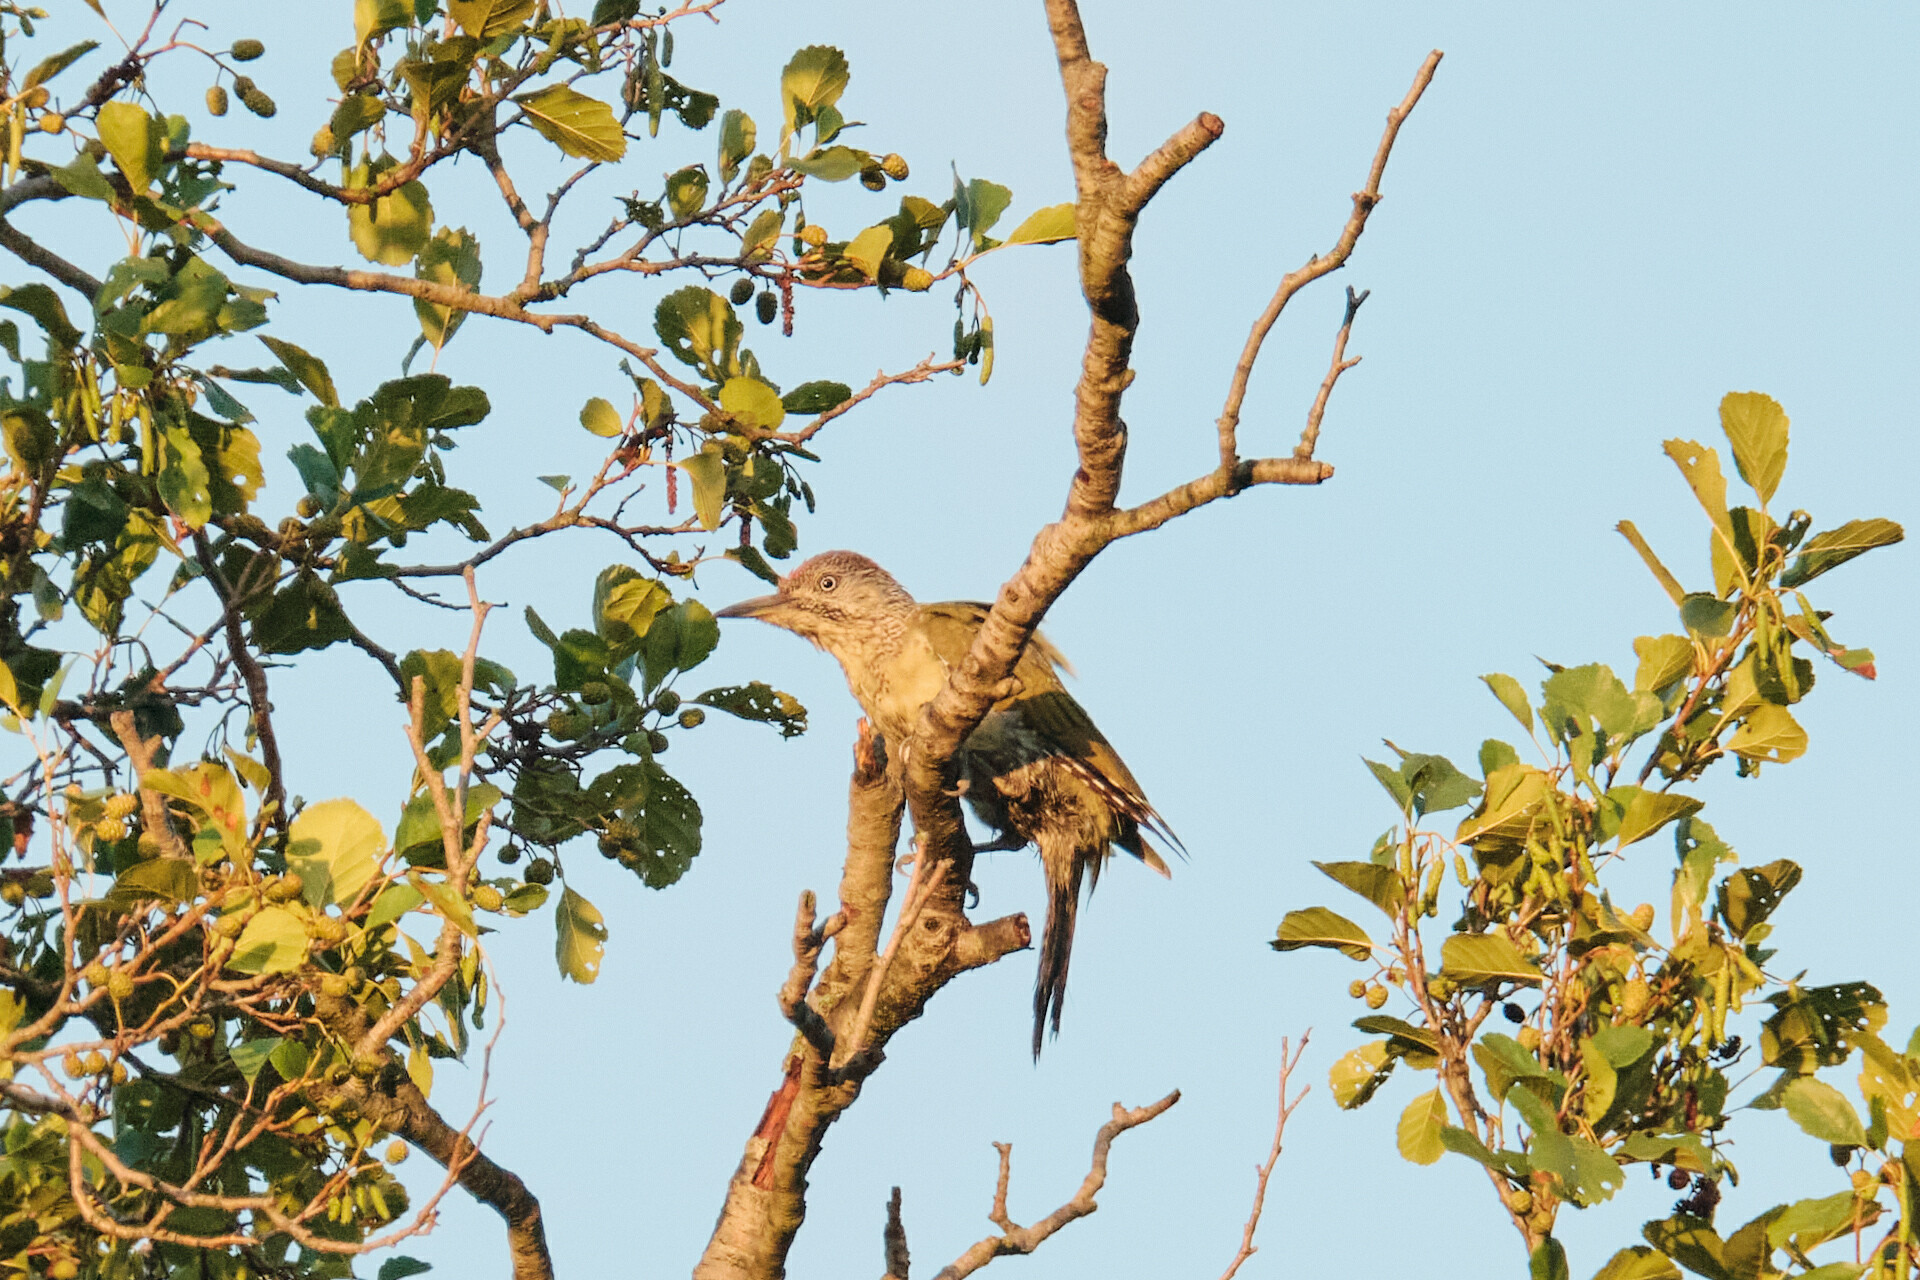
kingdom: Animalia
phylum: Chordata
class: Aves
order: Piciformes
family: Picidae
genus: Picus
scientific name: Picus viridis
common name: European green woodpecker
